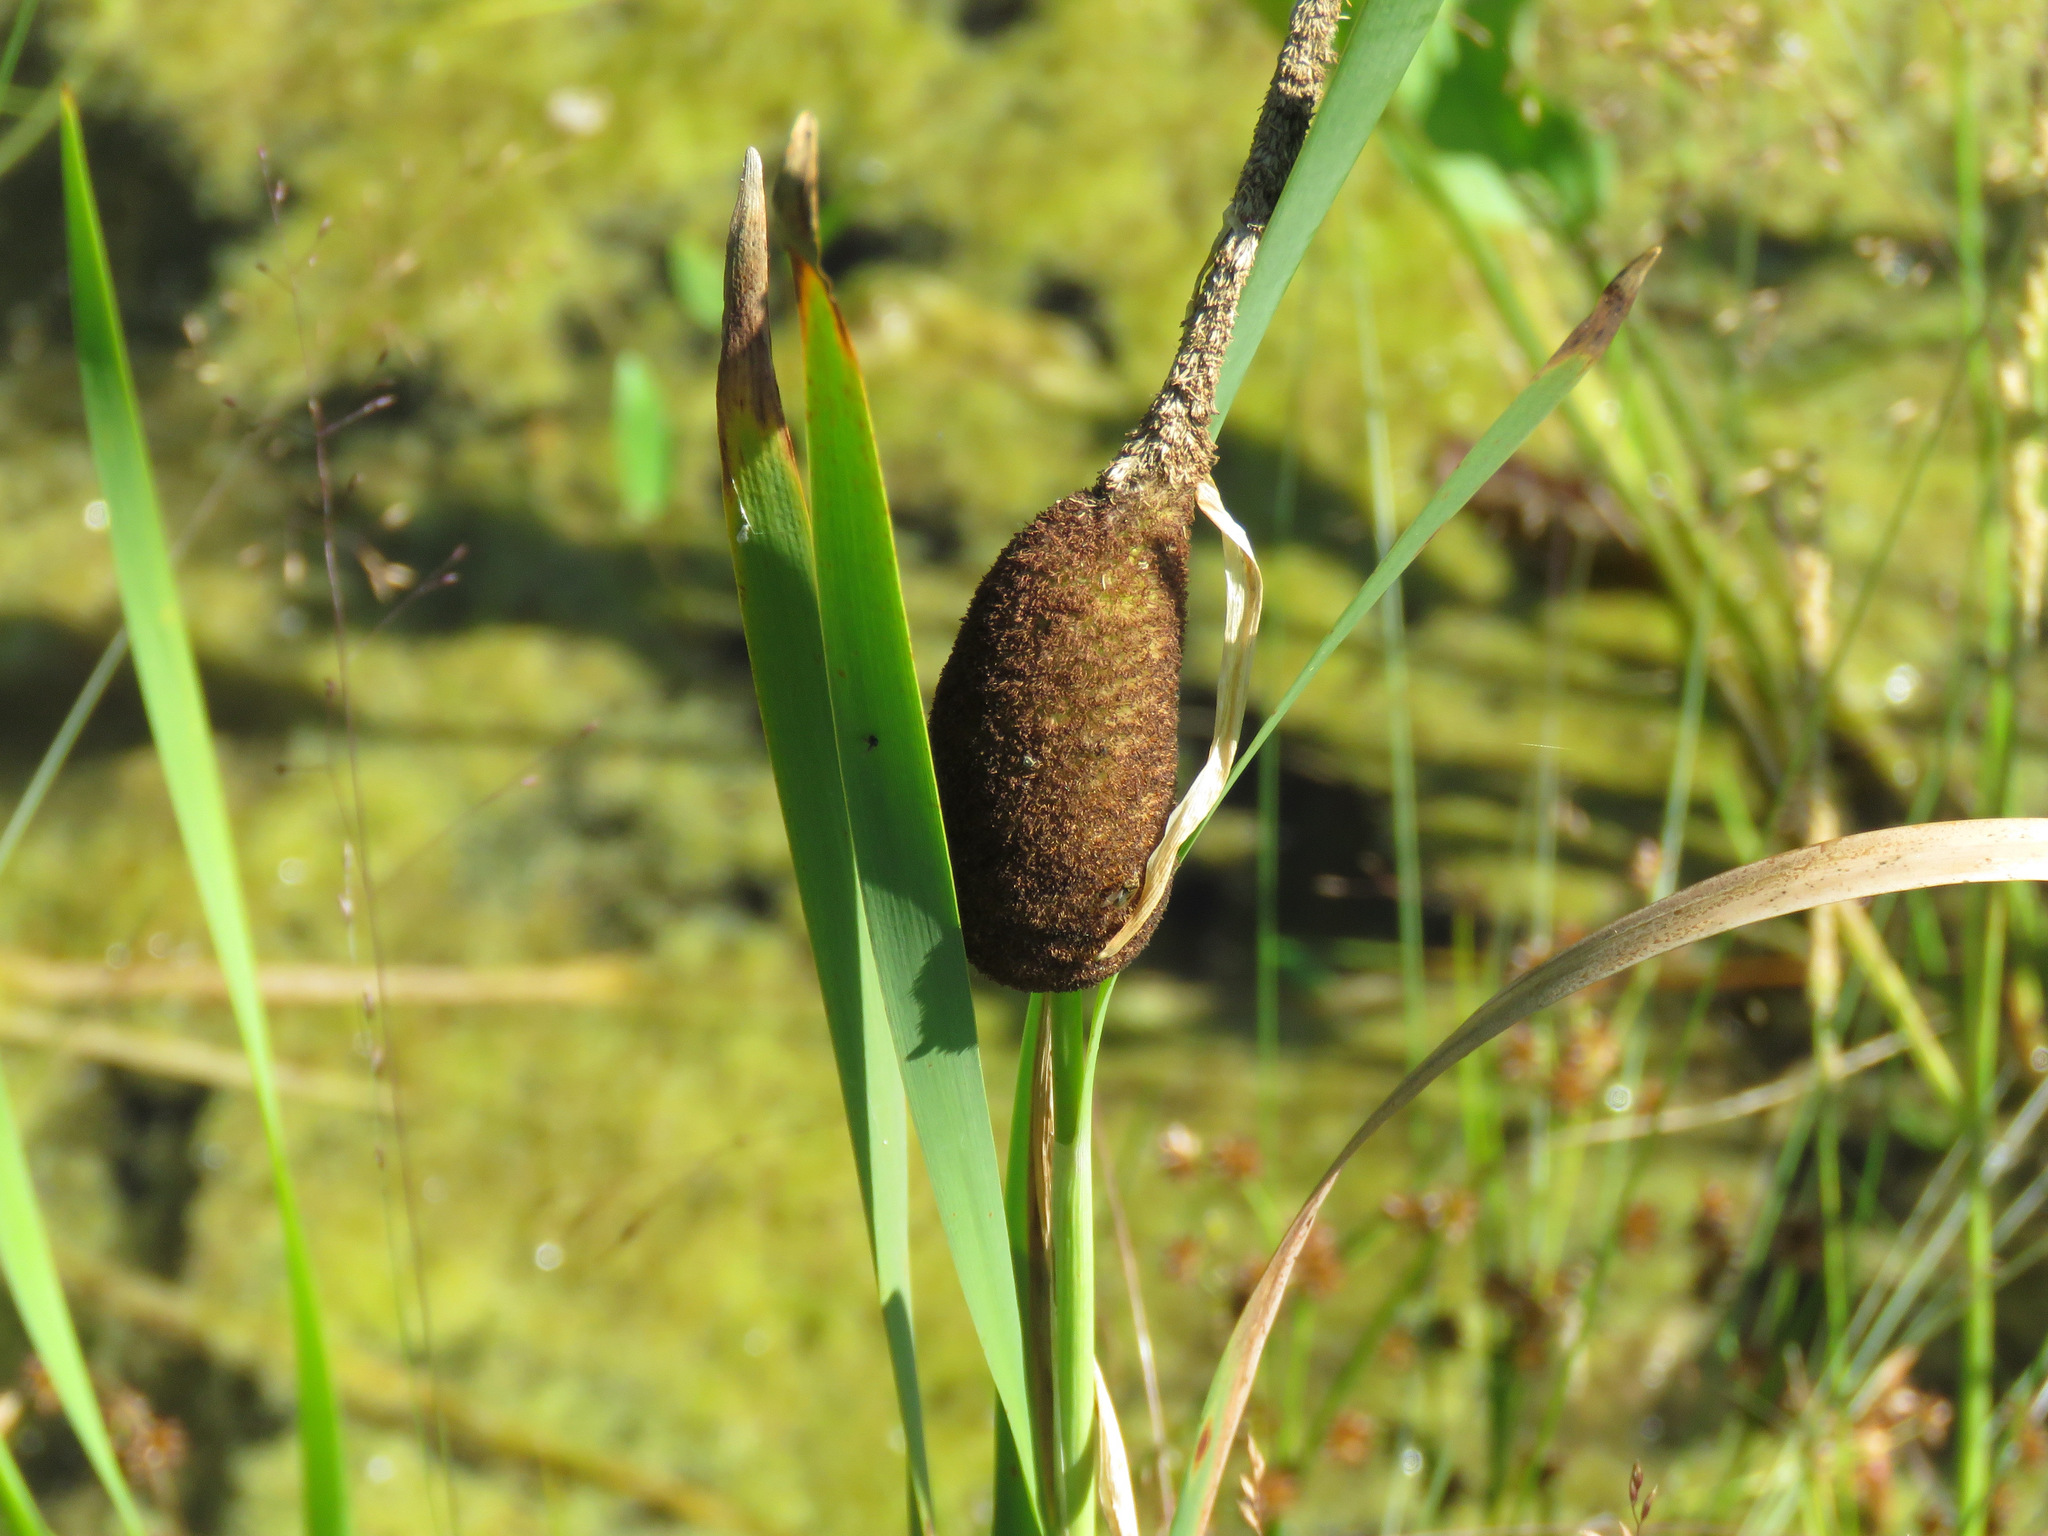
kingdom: Plantae
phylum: Tracheophyta
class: Liliopsida
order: Poales
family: Typhaceae
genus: Typha
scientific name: Typha latifolia
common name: Broadleaf cattail
